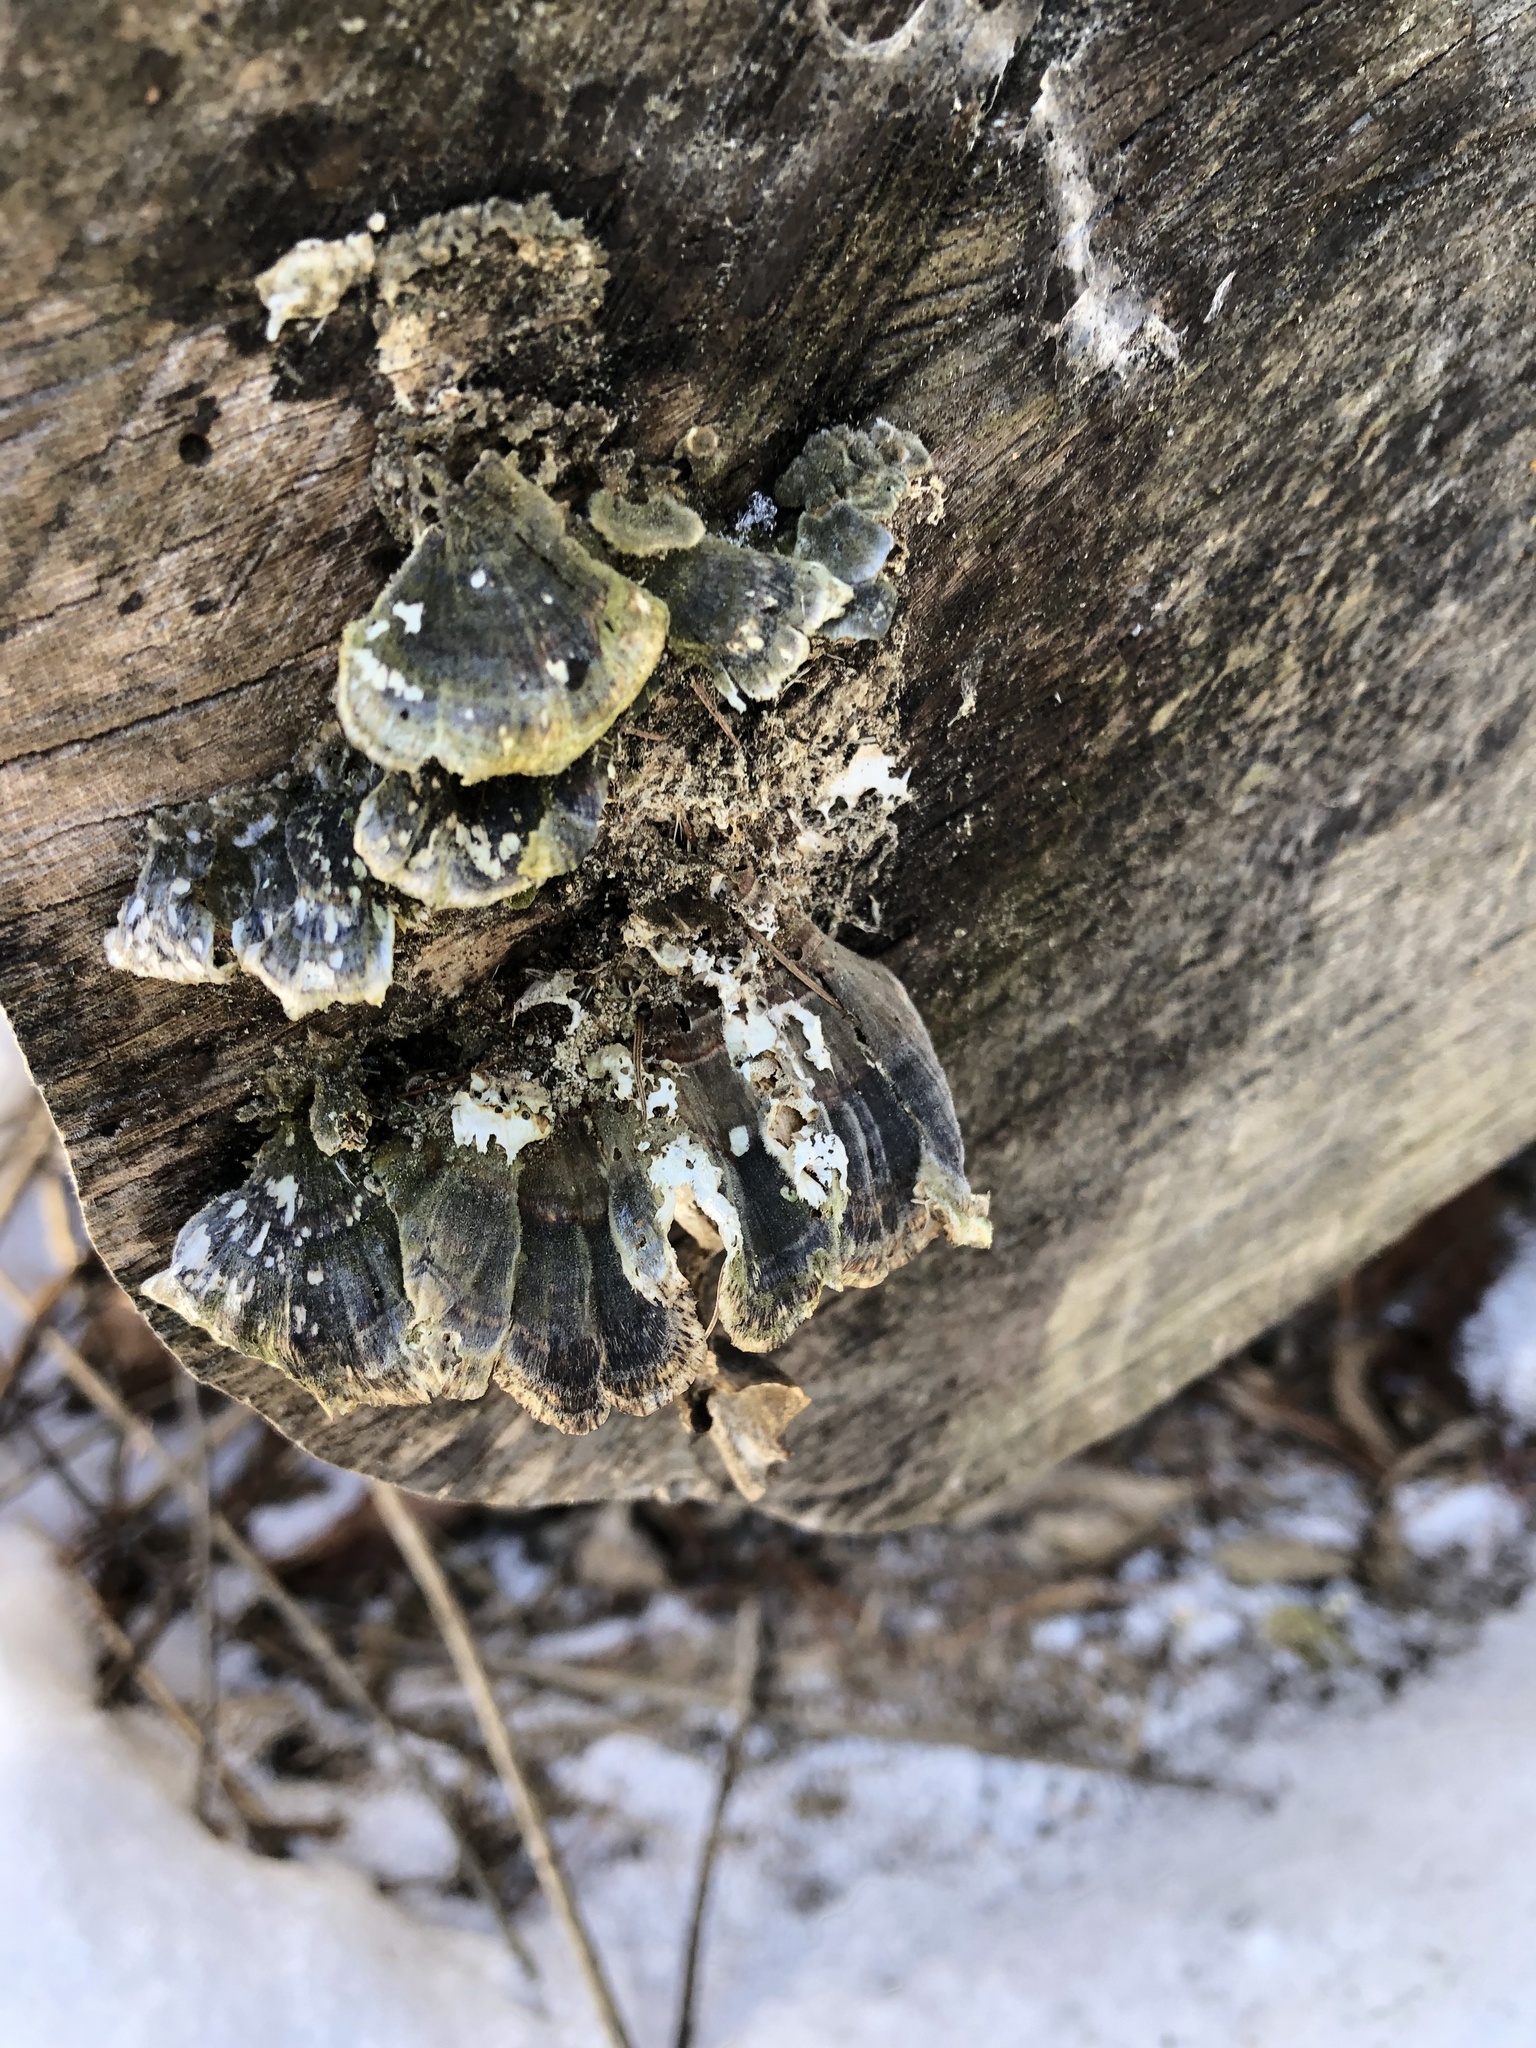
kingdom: Fungi
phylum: Basidiomycota
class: Agaricomycetes
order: Polyporales
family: Polyporaceae
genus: Trametes
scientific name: Trametes versicolor
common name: Turkeytail
